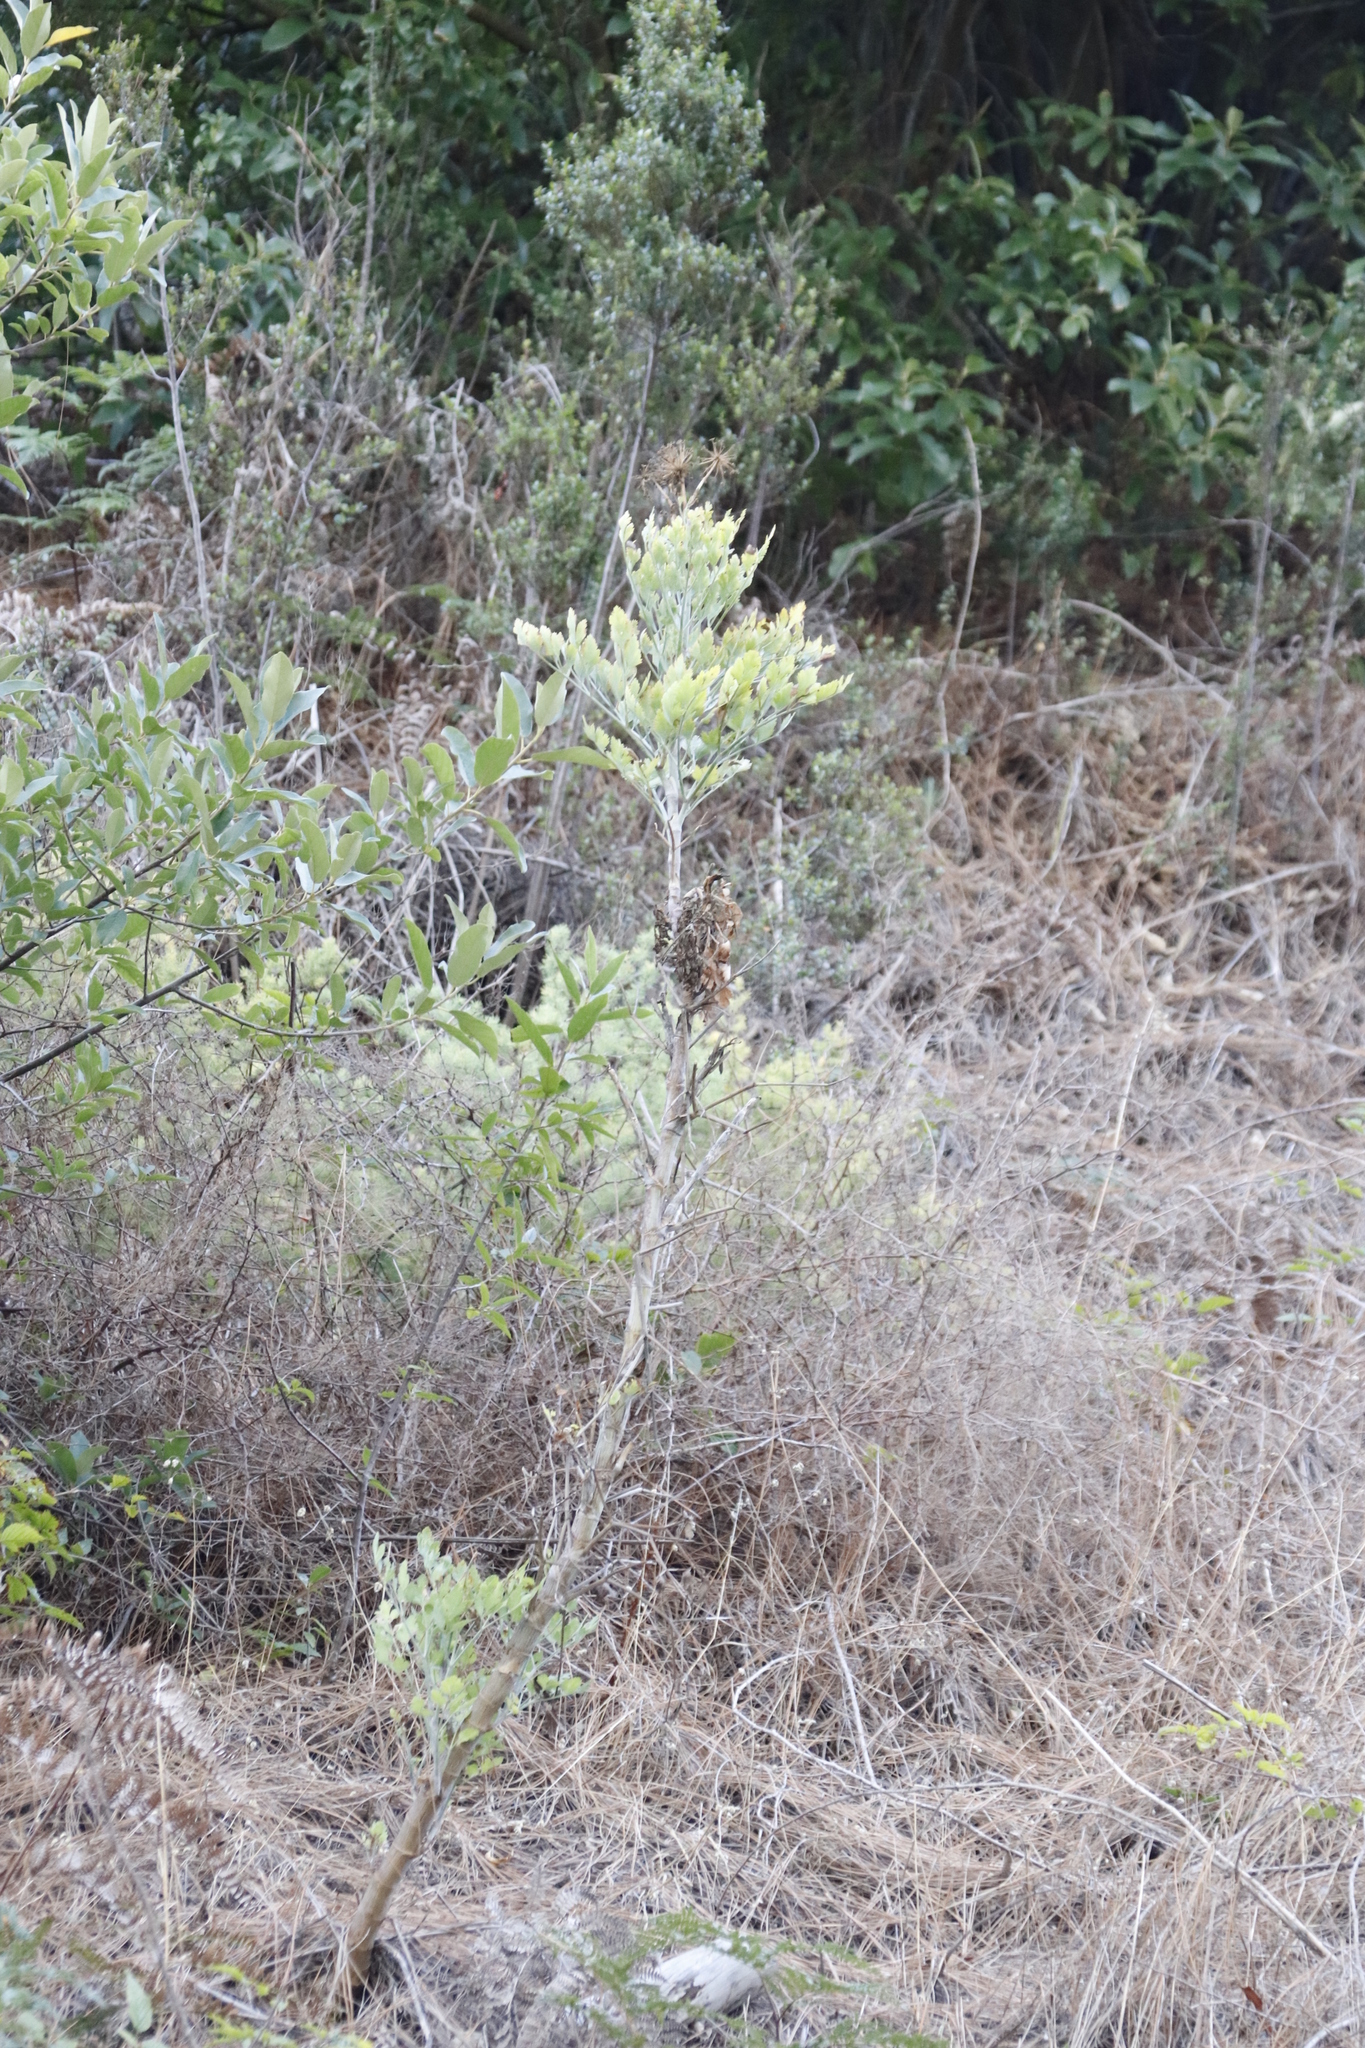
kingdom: Plantae
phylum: Tracheophyta
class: Magnoliopsida
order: Apiales
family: Apiaceae
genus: Notobubon
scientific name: Notobubon galbanum
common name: Blisterbush
